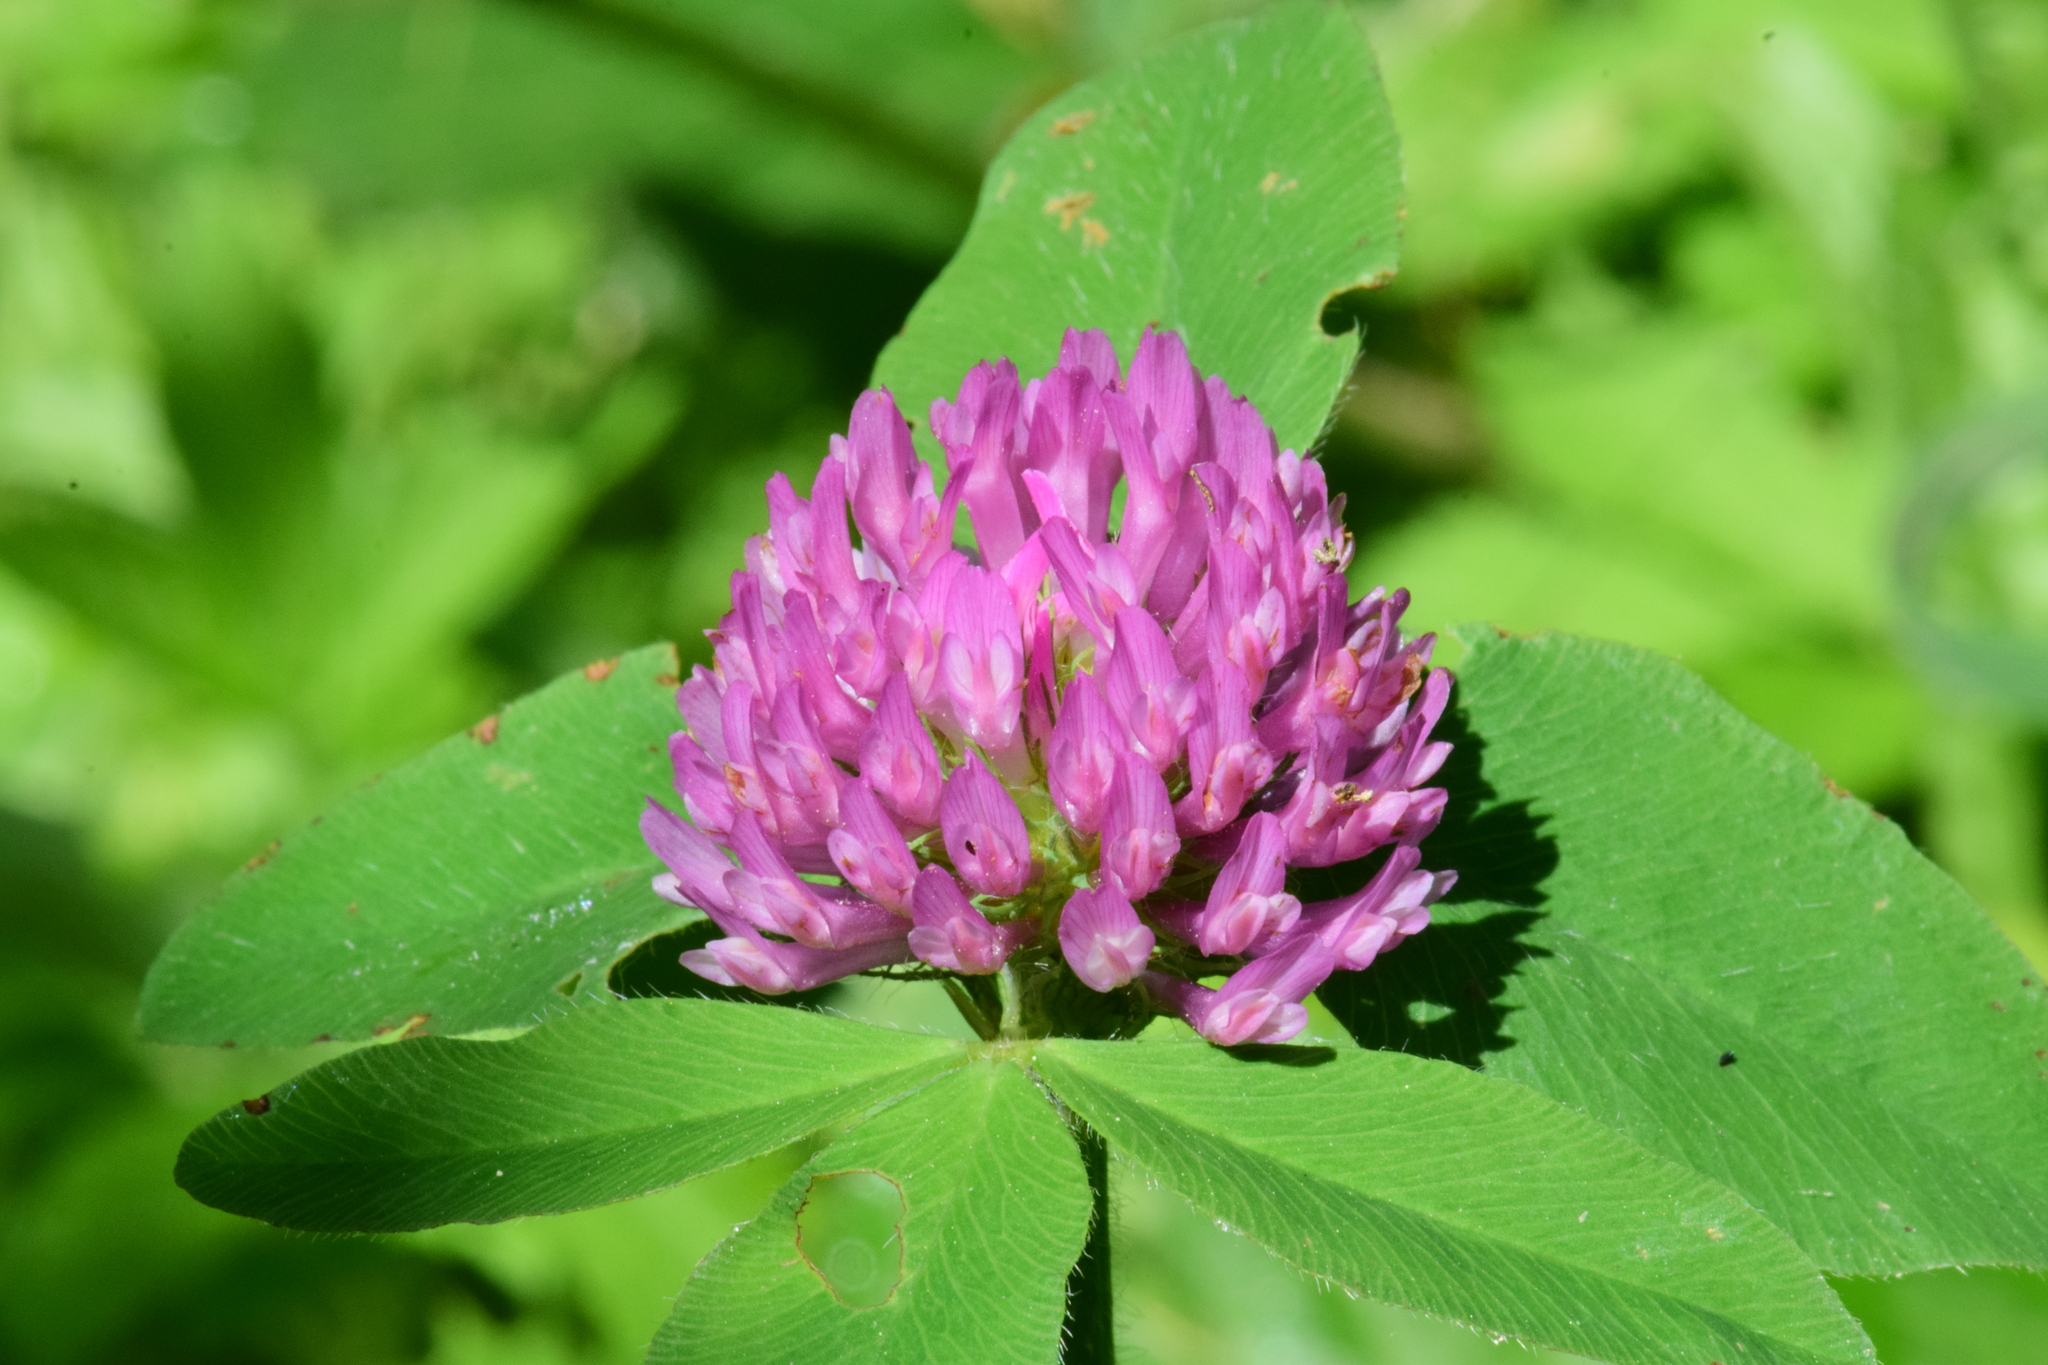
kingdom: Plantae
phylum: Tracheophyta
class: Magnoliopsida
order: Fabales
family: Fabaceae
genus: Trifolium
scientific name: Trifolium pratense
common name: Red clover
